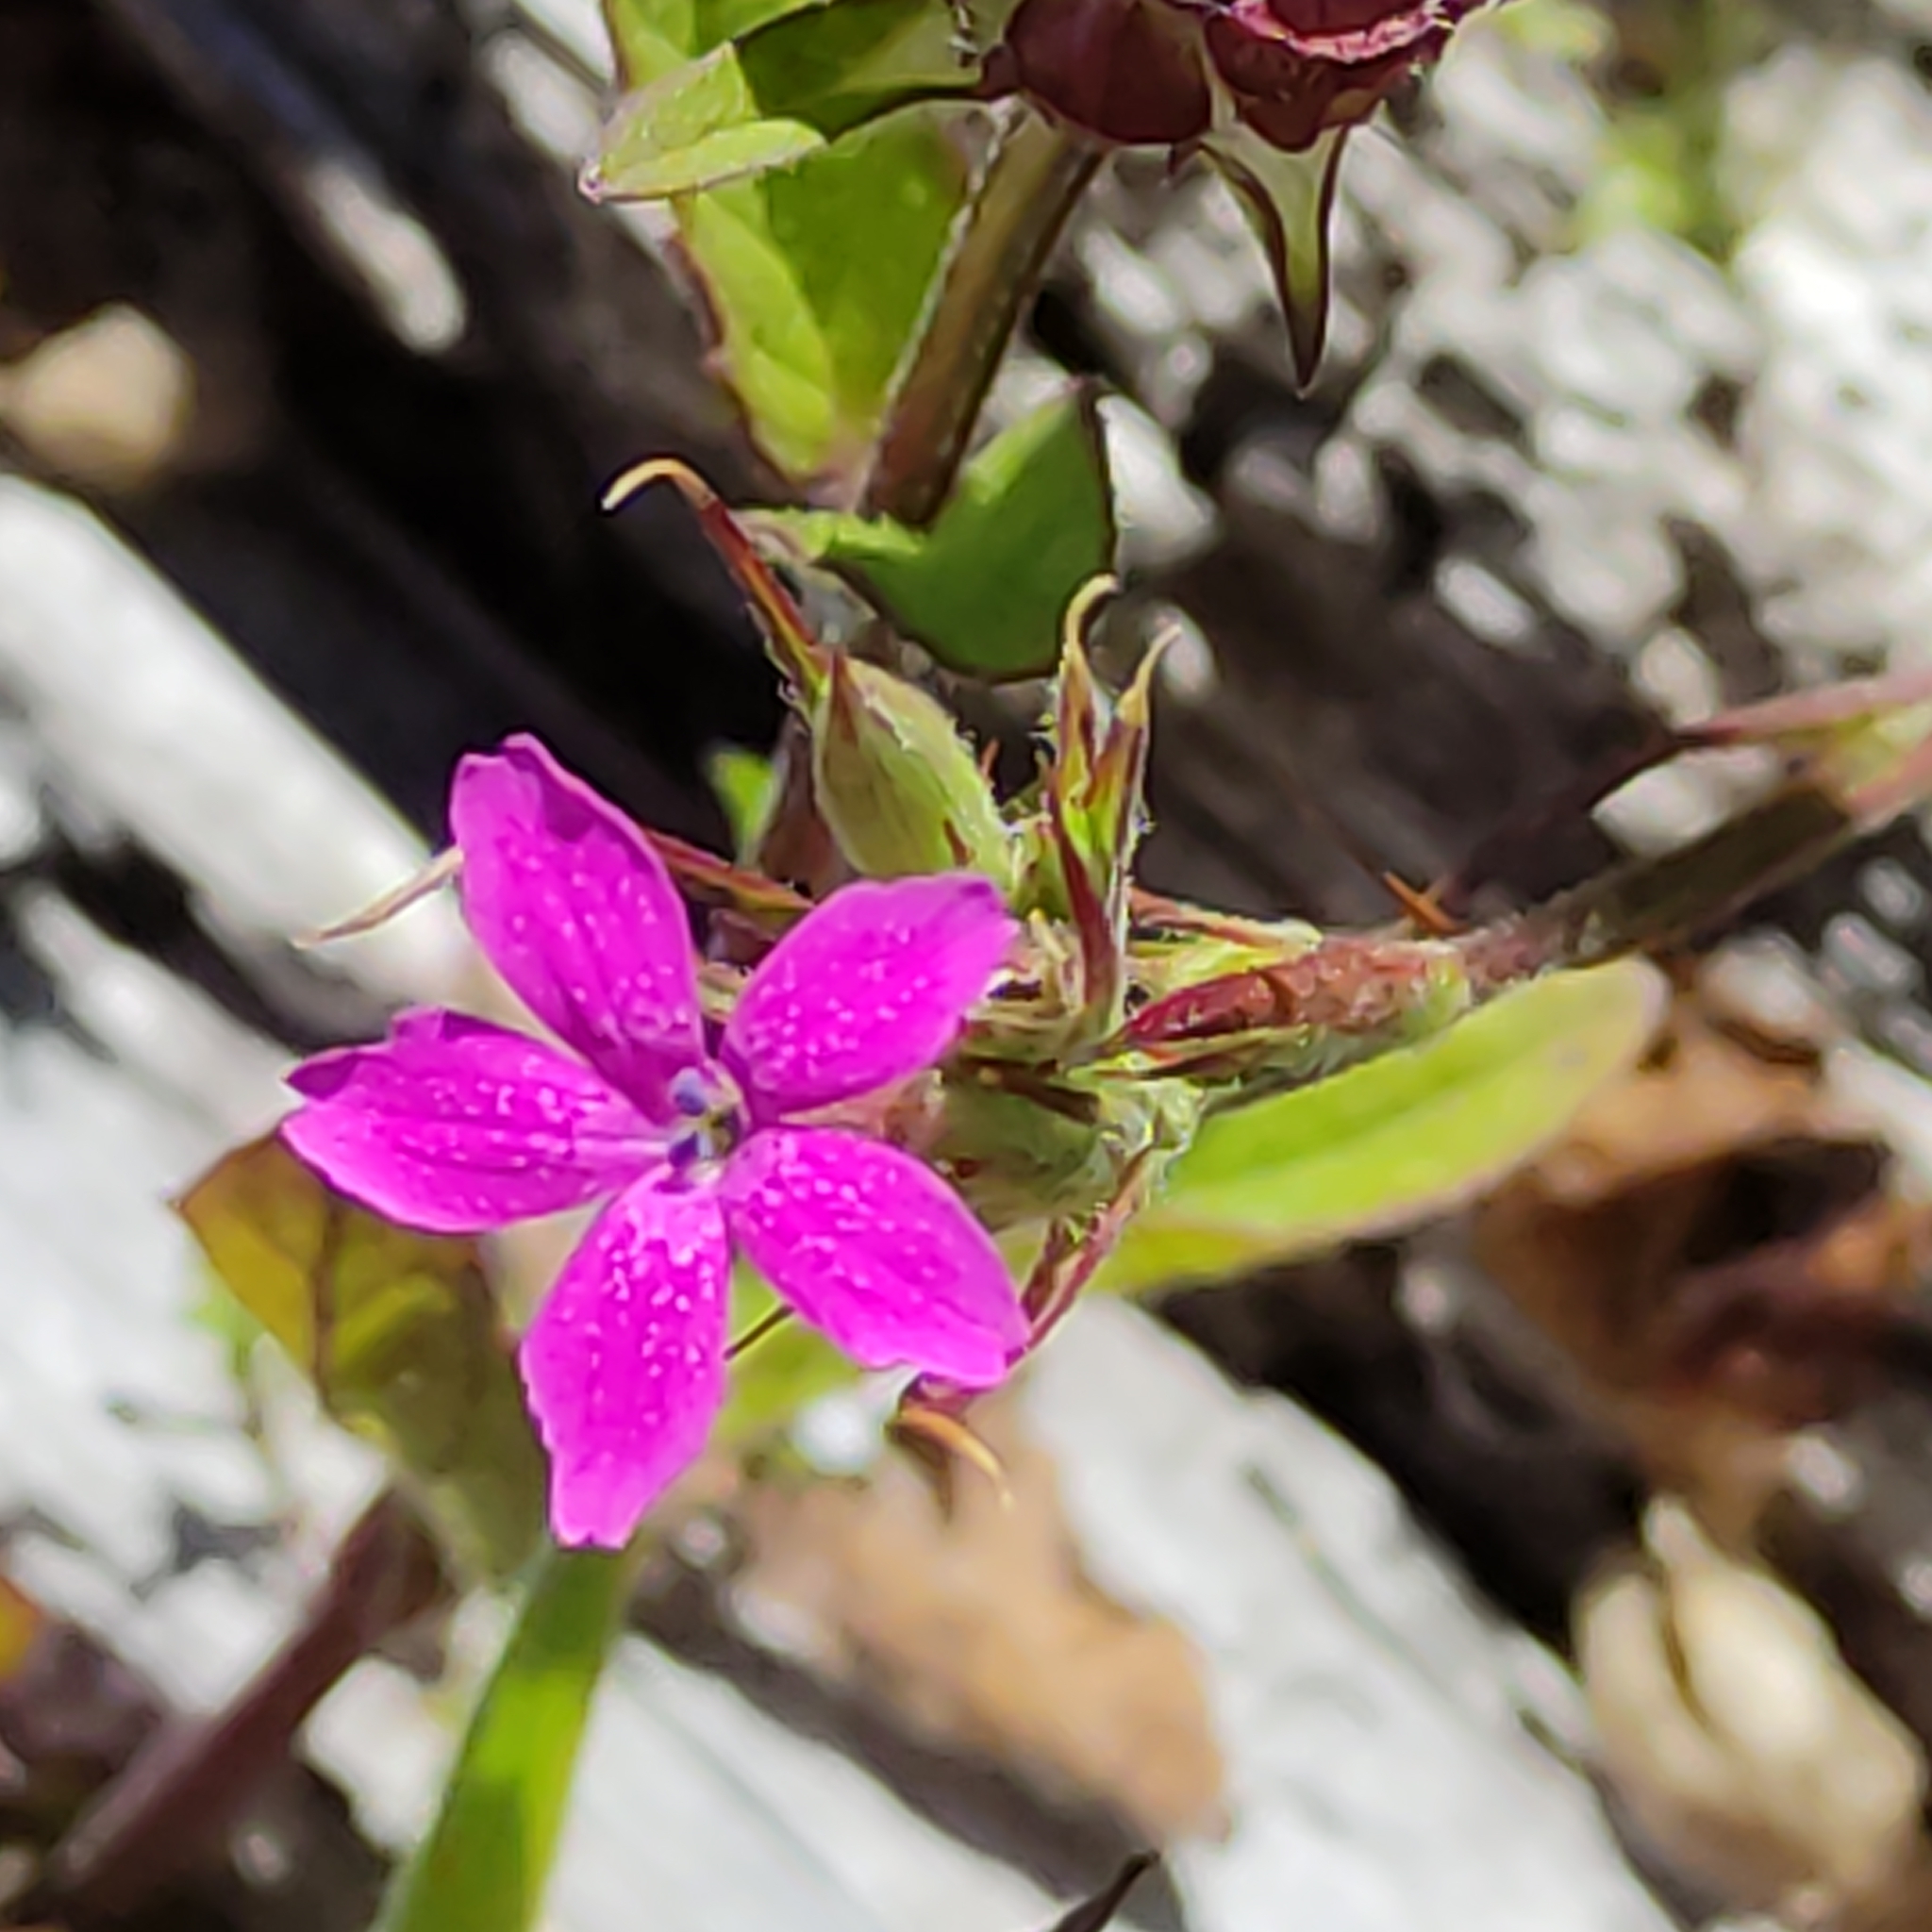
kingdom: Plantae
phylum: Tracheophyta
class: Magnoliopsida
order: Caryophyllales
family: Caryophyllaceae
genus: Dianthus
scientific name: Dianthus armeria
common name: Deptford pink
